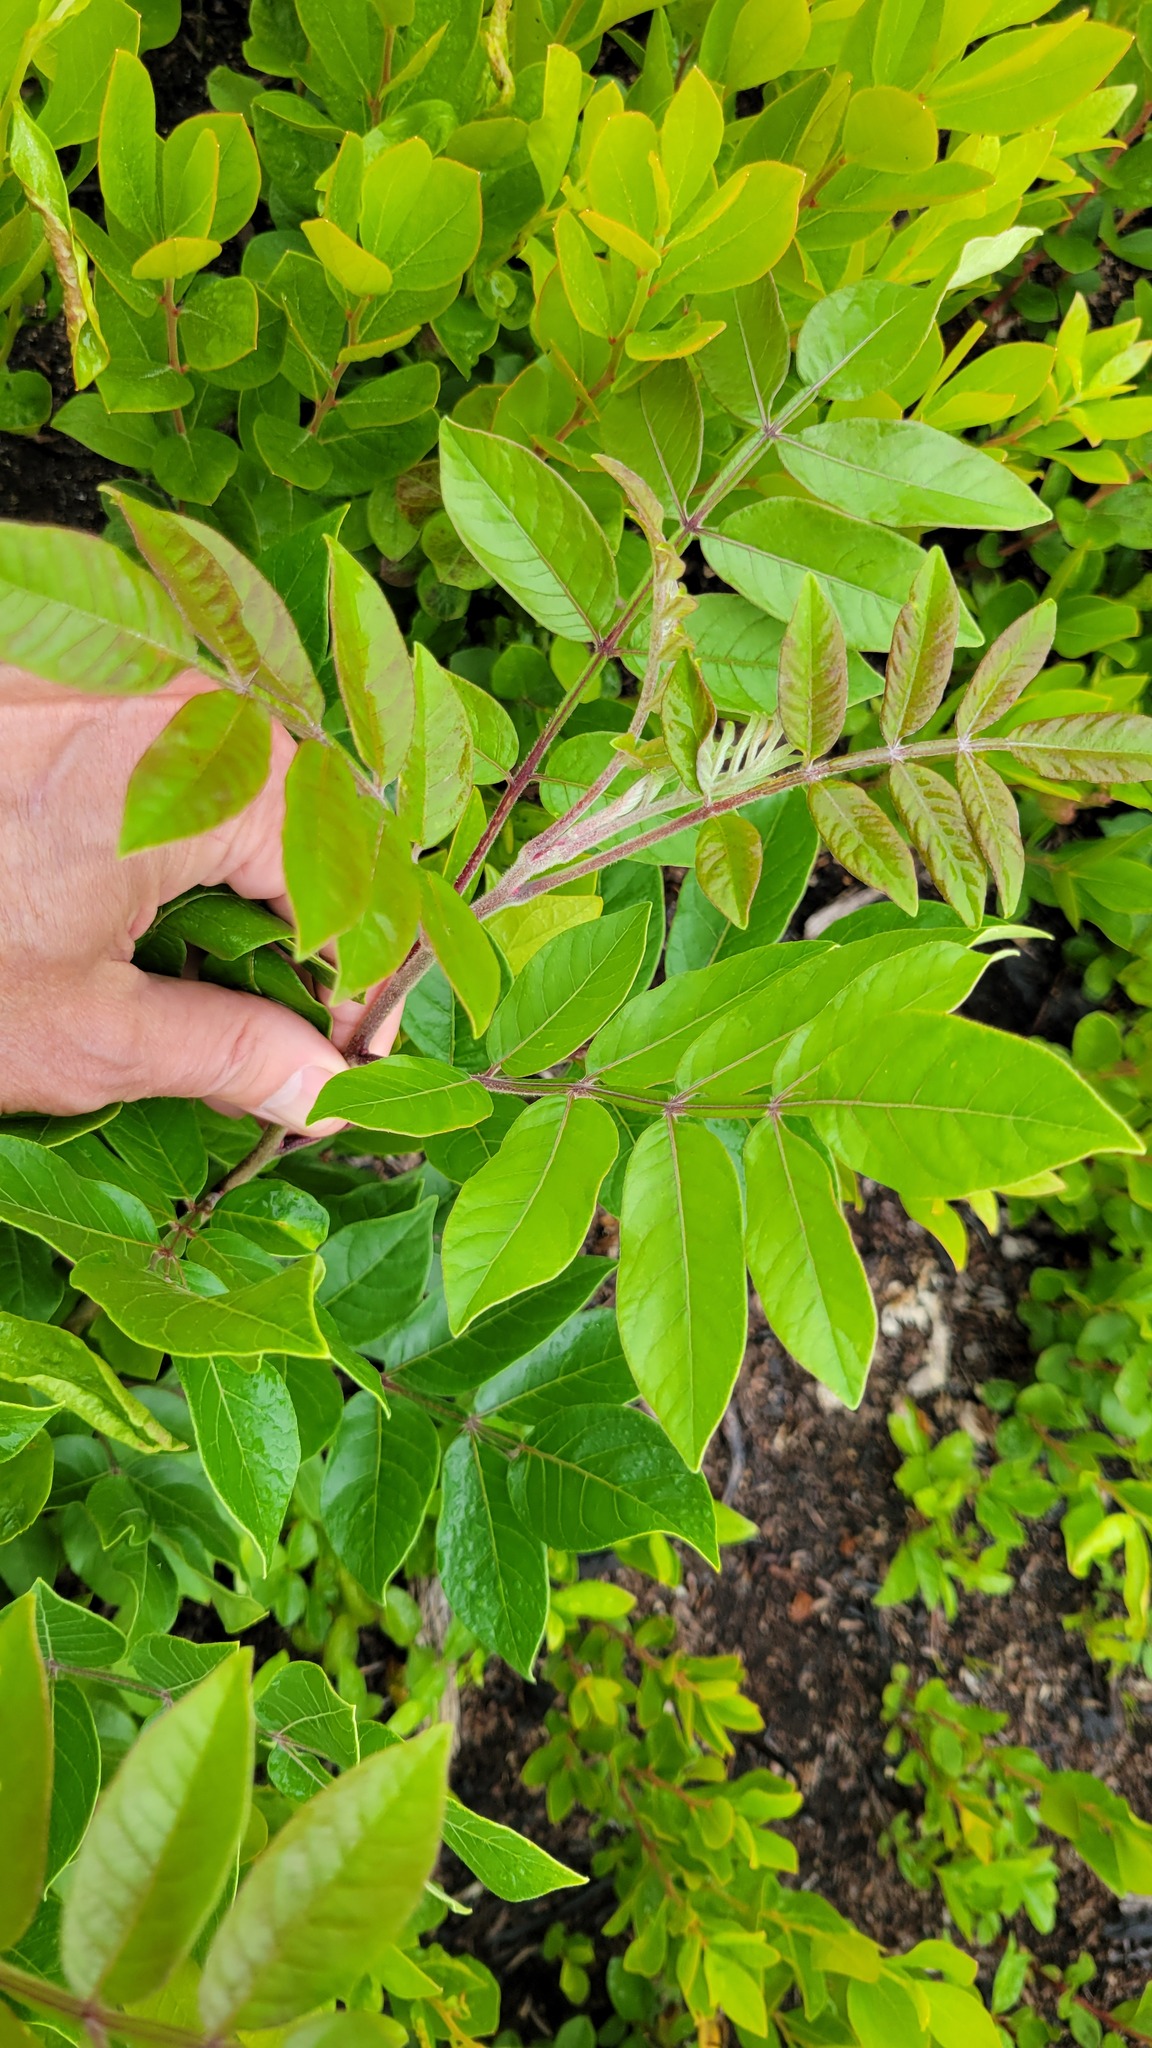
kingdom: Plantae
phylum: Tracheophyta
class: Magnoliopsida
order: Sapindales
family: Anacardiaceae
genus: Rhus
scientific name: Rhus copallina
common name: Shining sumac
